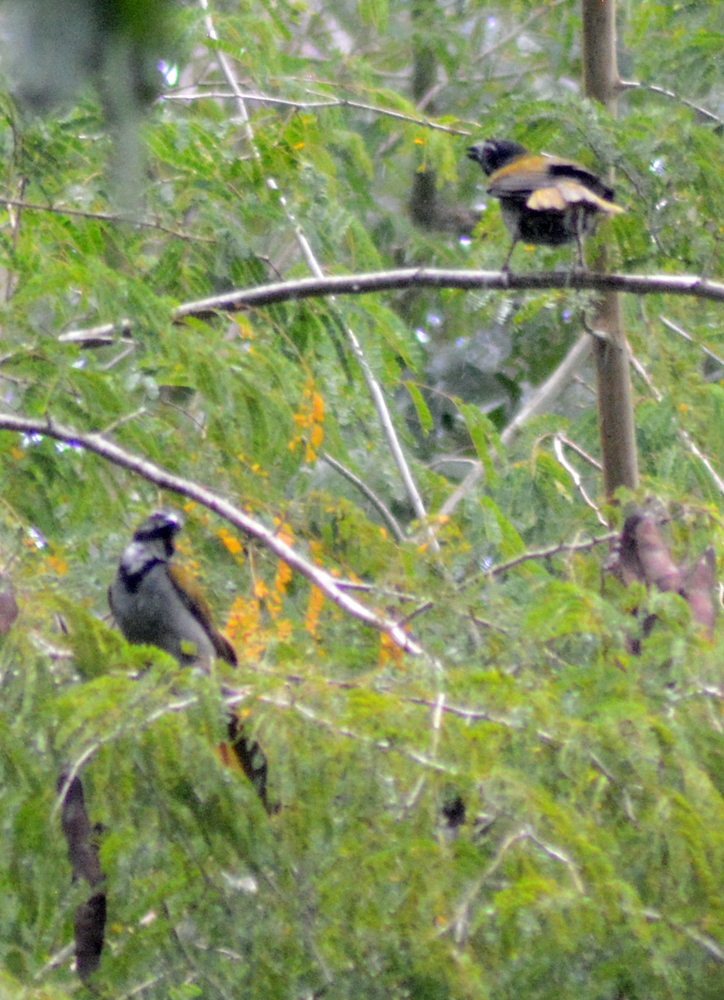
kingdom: Animalia
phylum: Chordata
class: Aves
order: Passeriformes
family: Thraupidae
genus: Saltator
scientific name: Saltator atriceps
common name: Black-headed saltator
